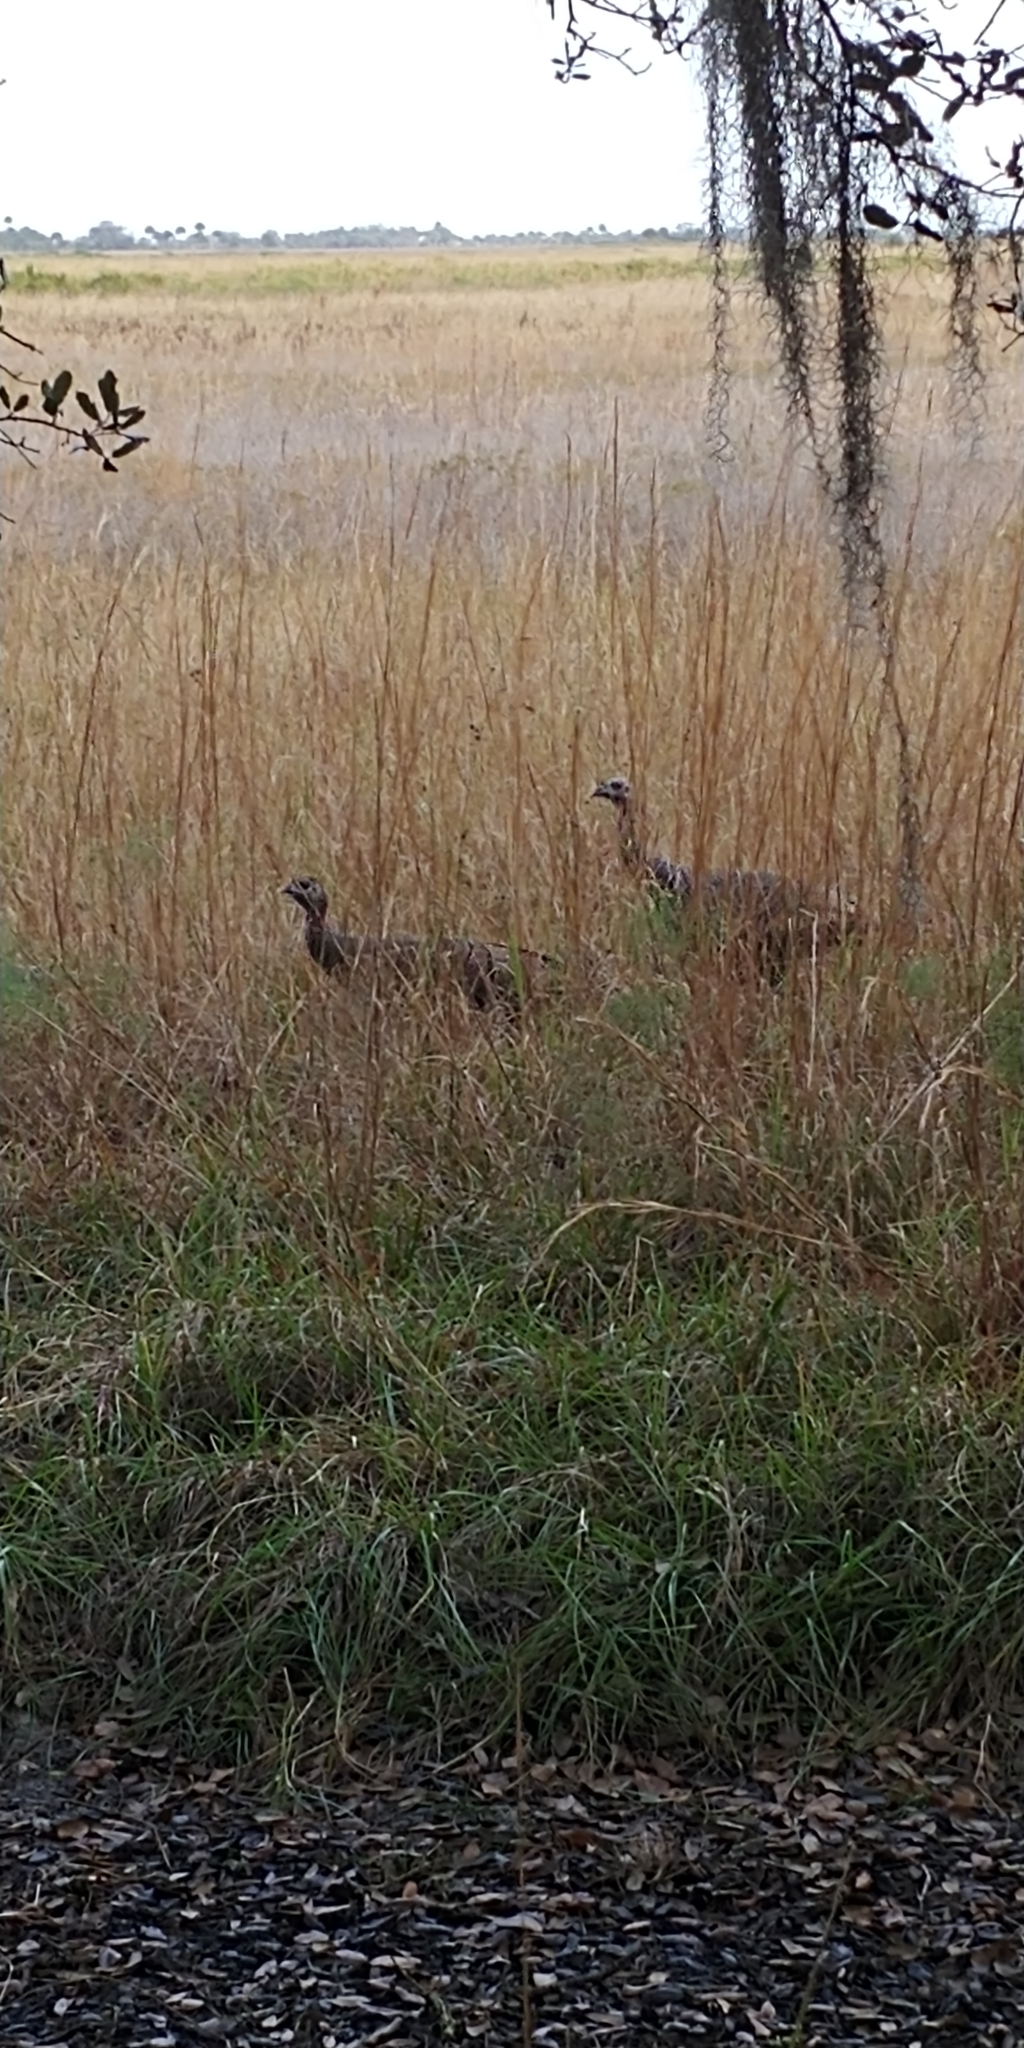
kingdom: Animalia
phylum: Chordata
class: Aves
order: Galliformes
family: Phasianidae
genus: Meleagris
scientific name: Meleagris gallopavo
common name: Wild turkey
